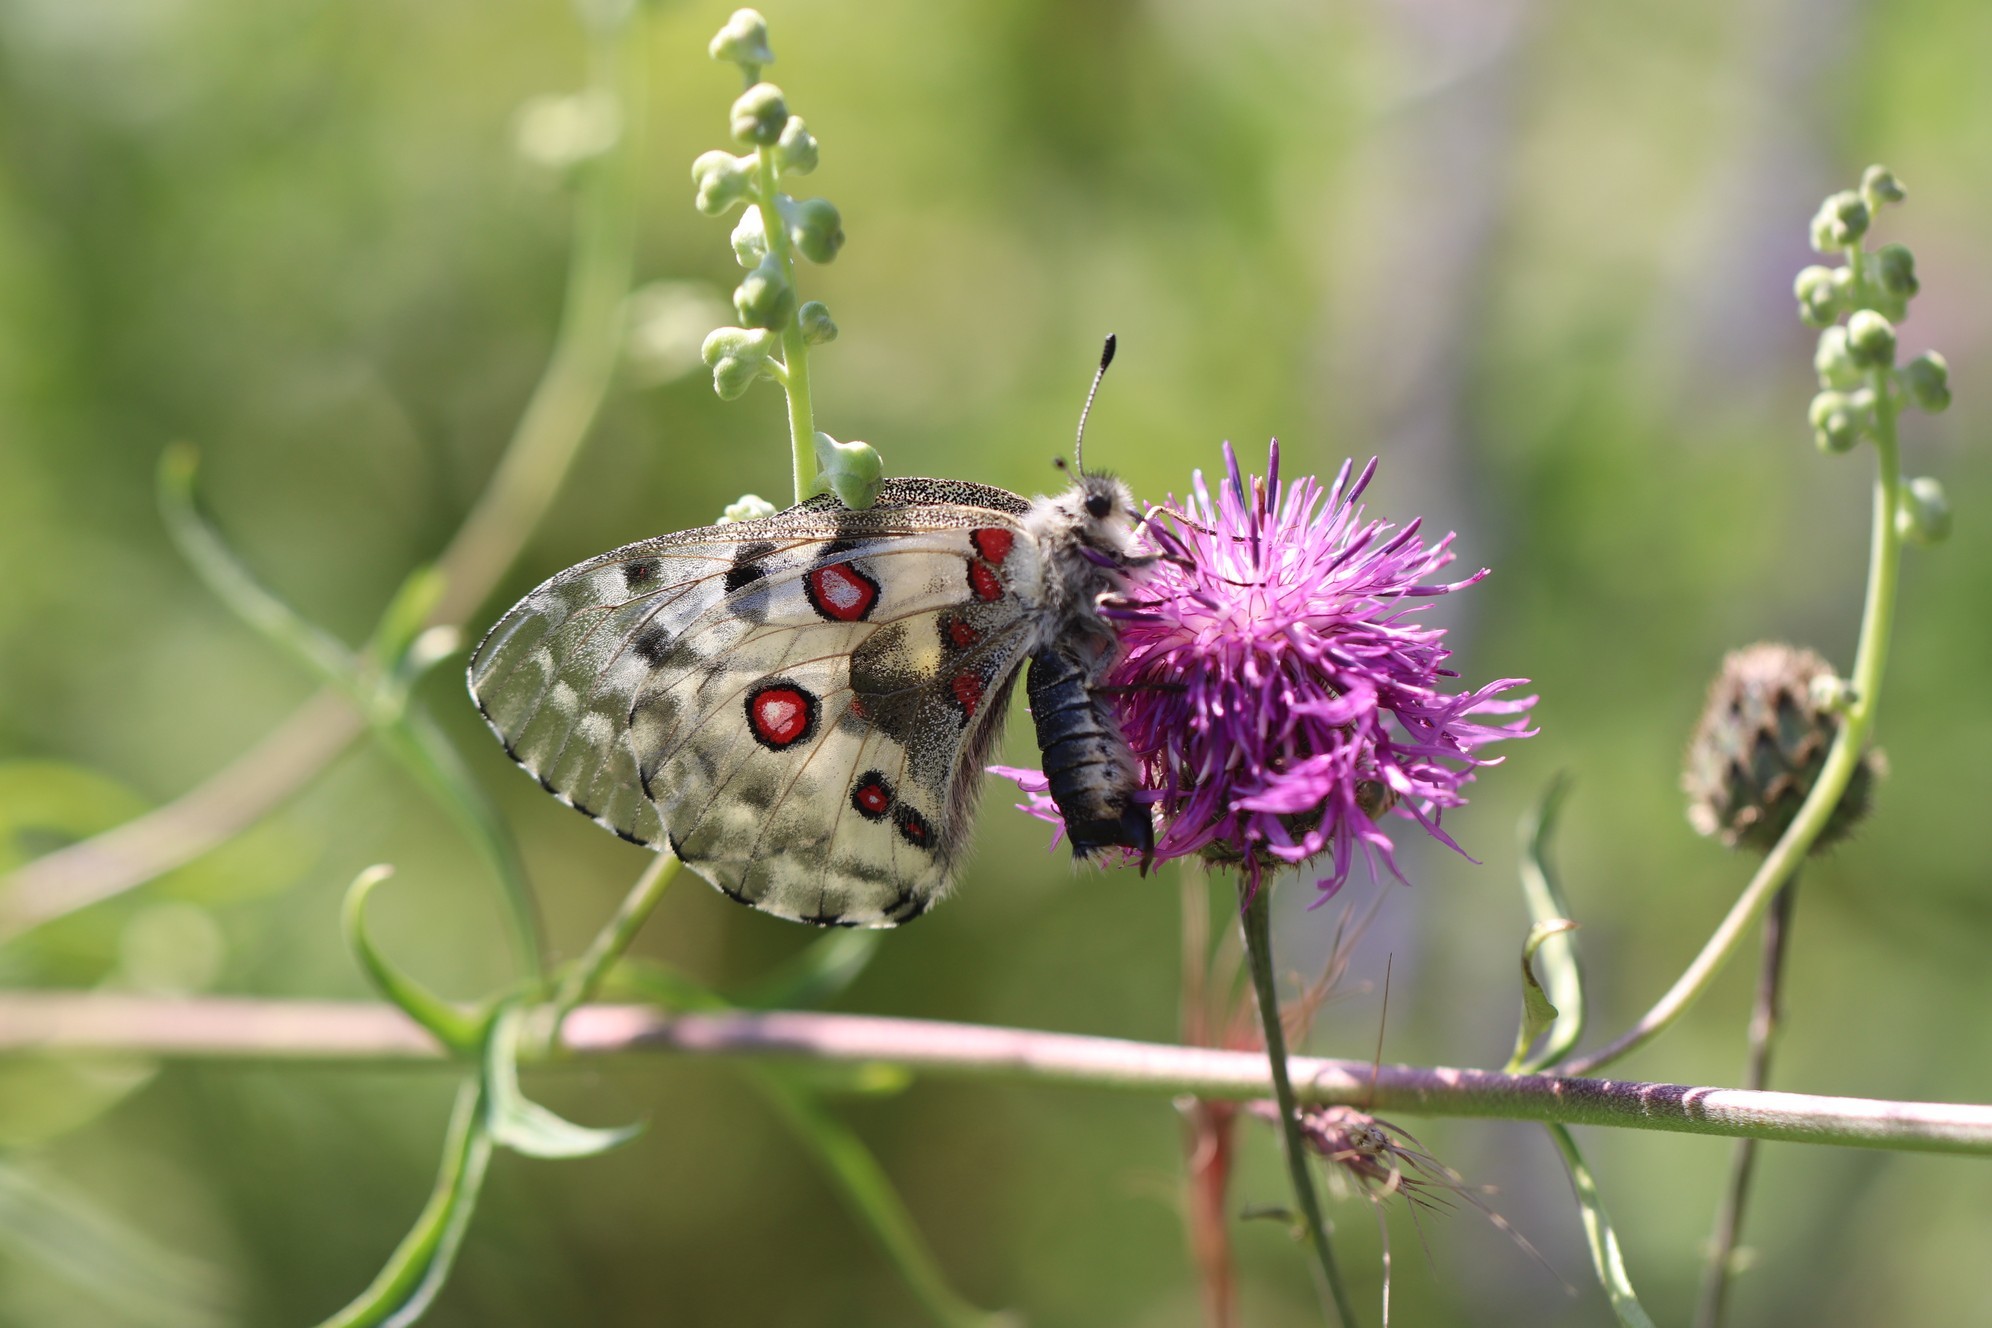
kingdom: Animalia
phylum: Arthropoda
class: Insecta
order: Lepidoptera
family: Papilionidae
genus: Parnassius
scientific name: Parnassius nomion
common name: Nomion apollo
